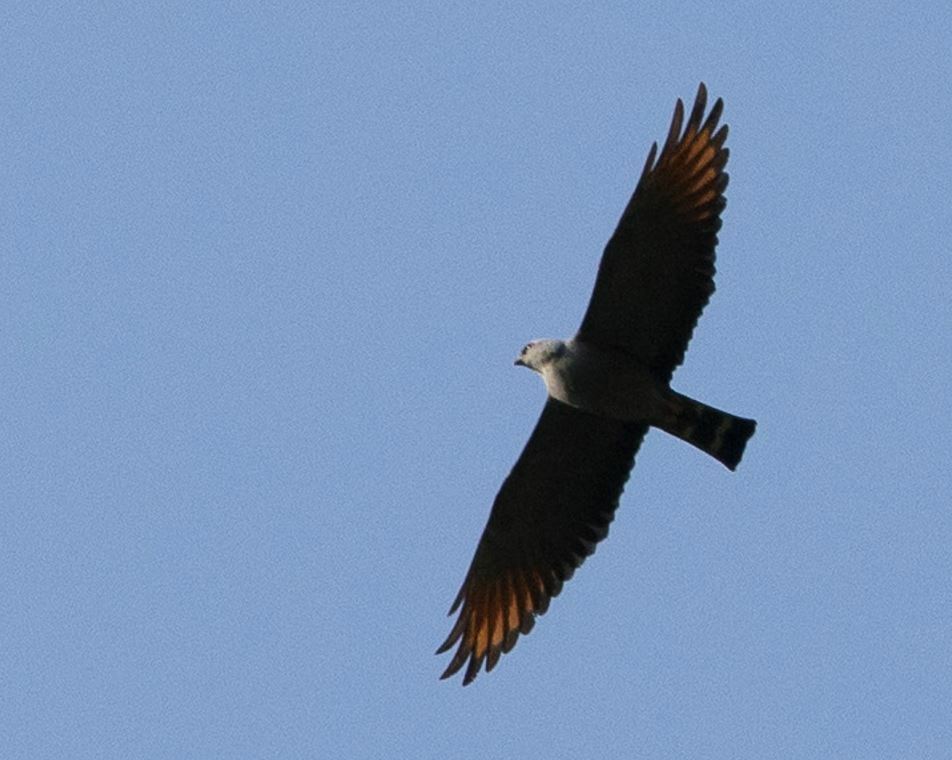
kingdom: Animalia
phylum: Chordata
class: Aves
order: Accipitriformes
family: Accipitridae
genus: Ictinia
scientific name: Ictinia plumbea
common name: Plumbeous kite
